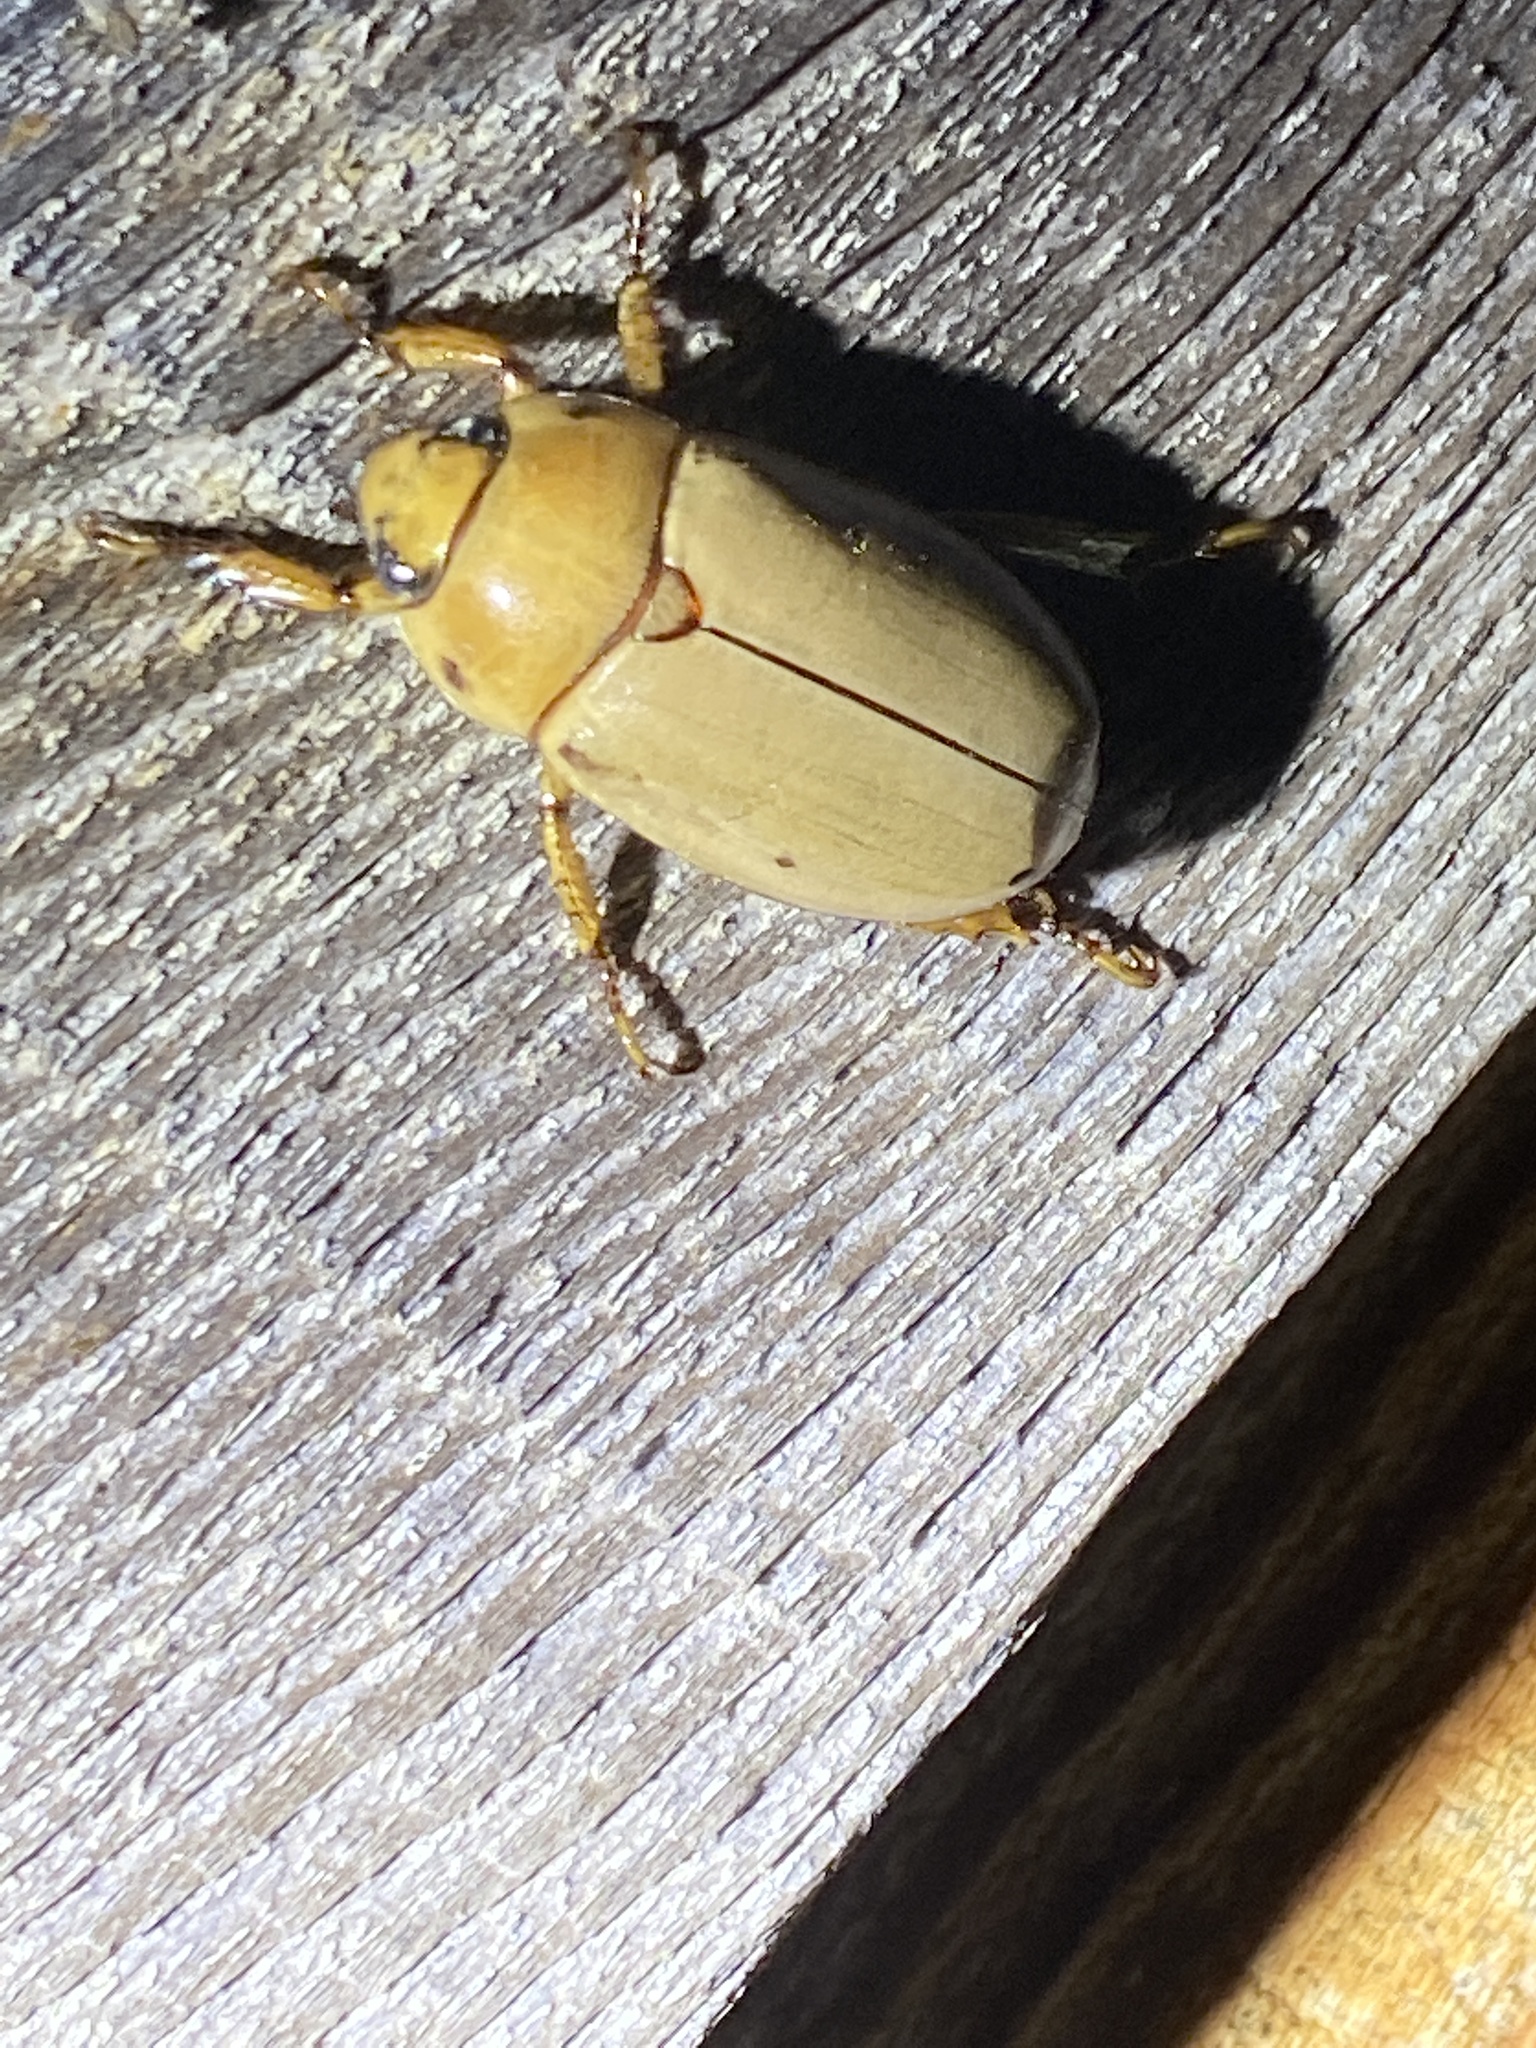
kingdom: Animalia
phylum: Arthropoda
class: Insecta
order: Coleoptera
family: Scarabaeidae
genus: Pelidnota
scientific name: Pelidnota punctata
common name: Grapevine beetle
